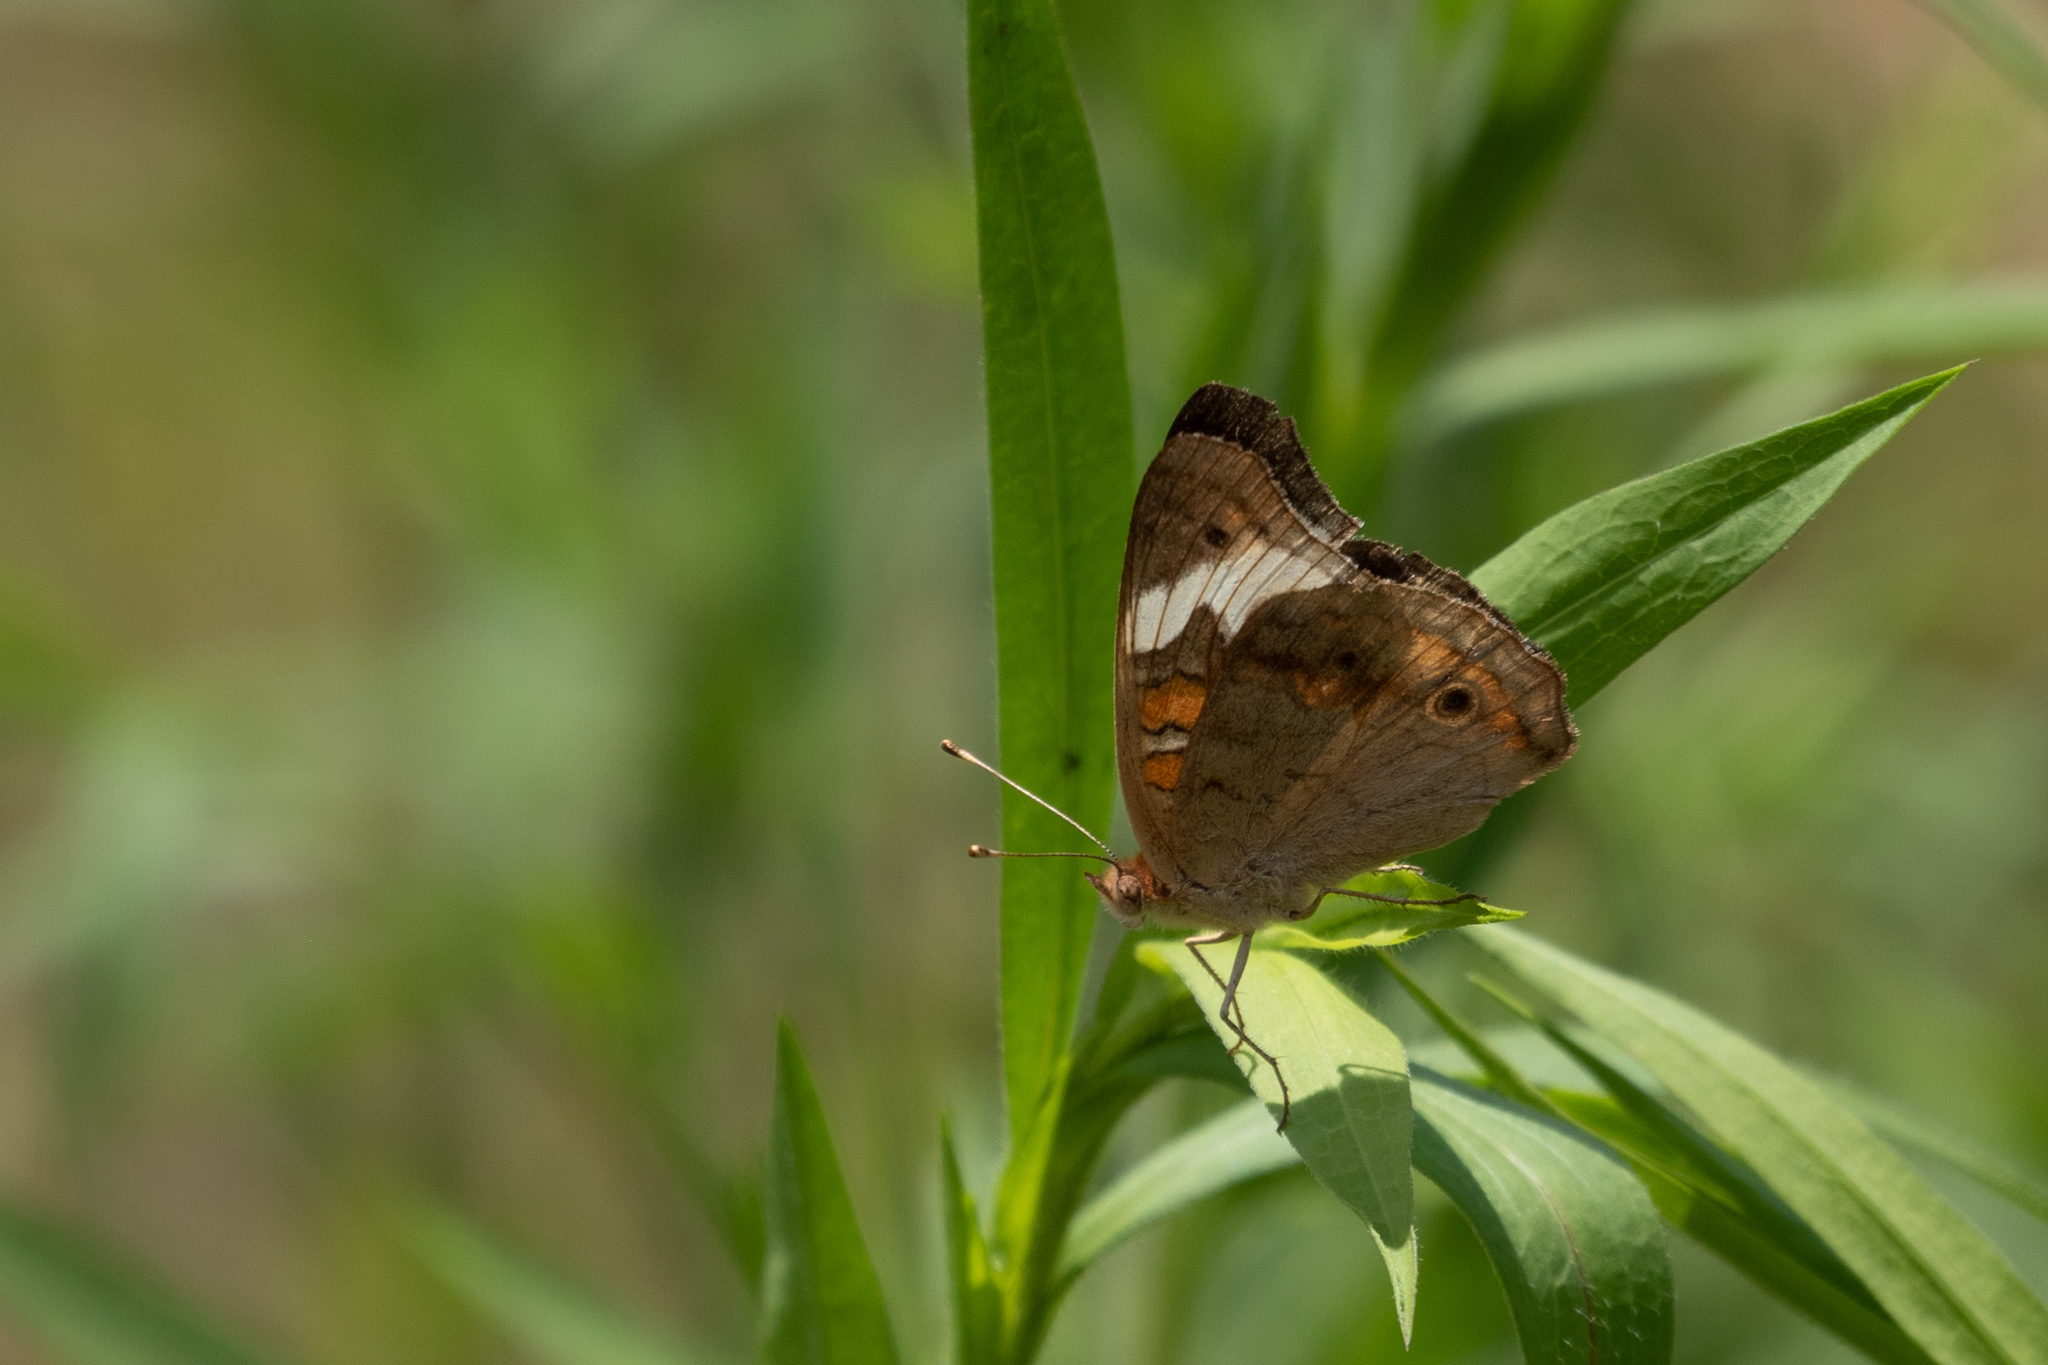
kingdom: Animalia
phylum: Arthropoda
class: Insecta
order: Lepidoptera
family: Nymphalidae
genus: Junonia
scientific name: Junonia coenia
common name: Common buckeye
